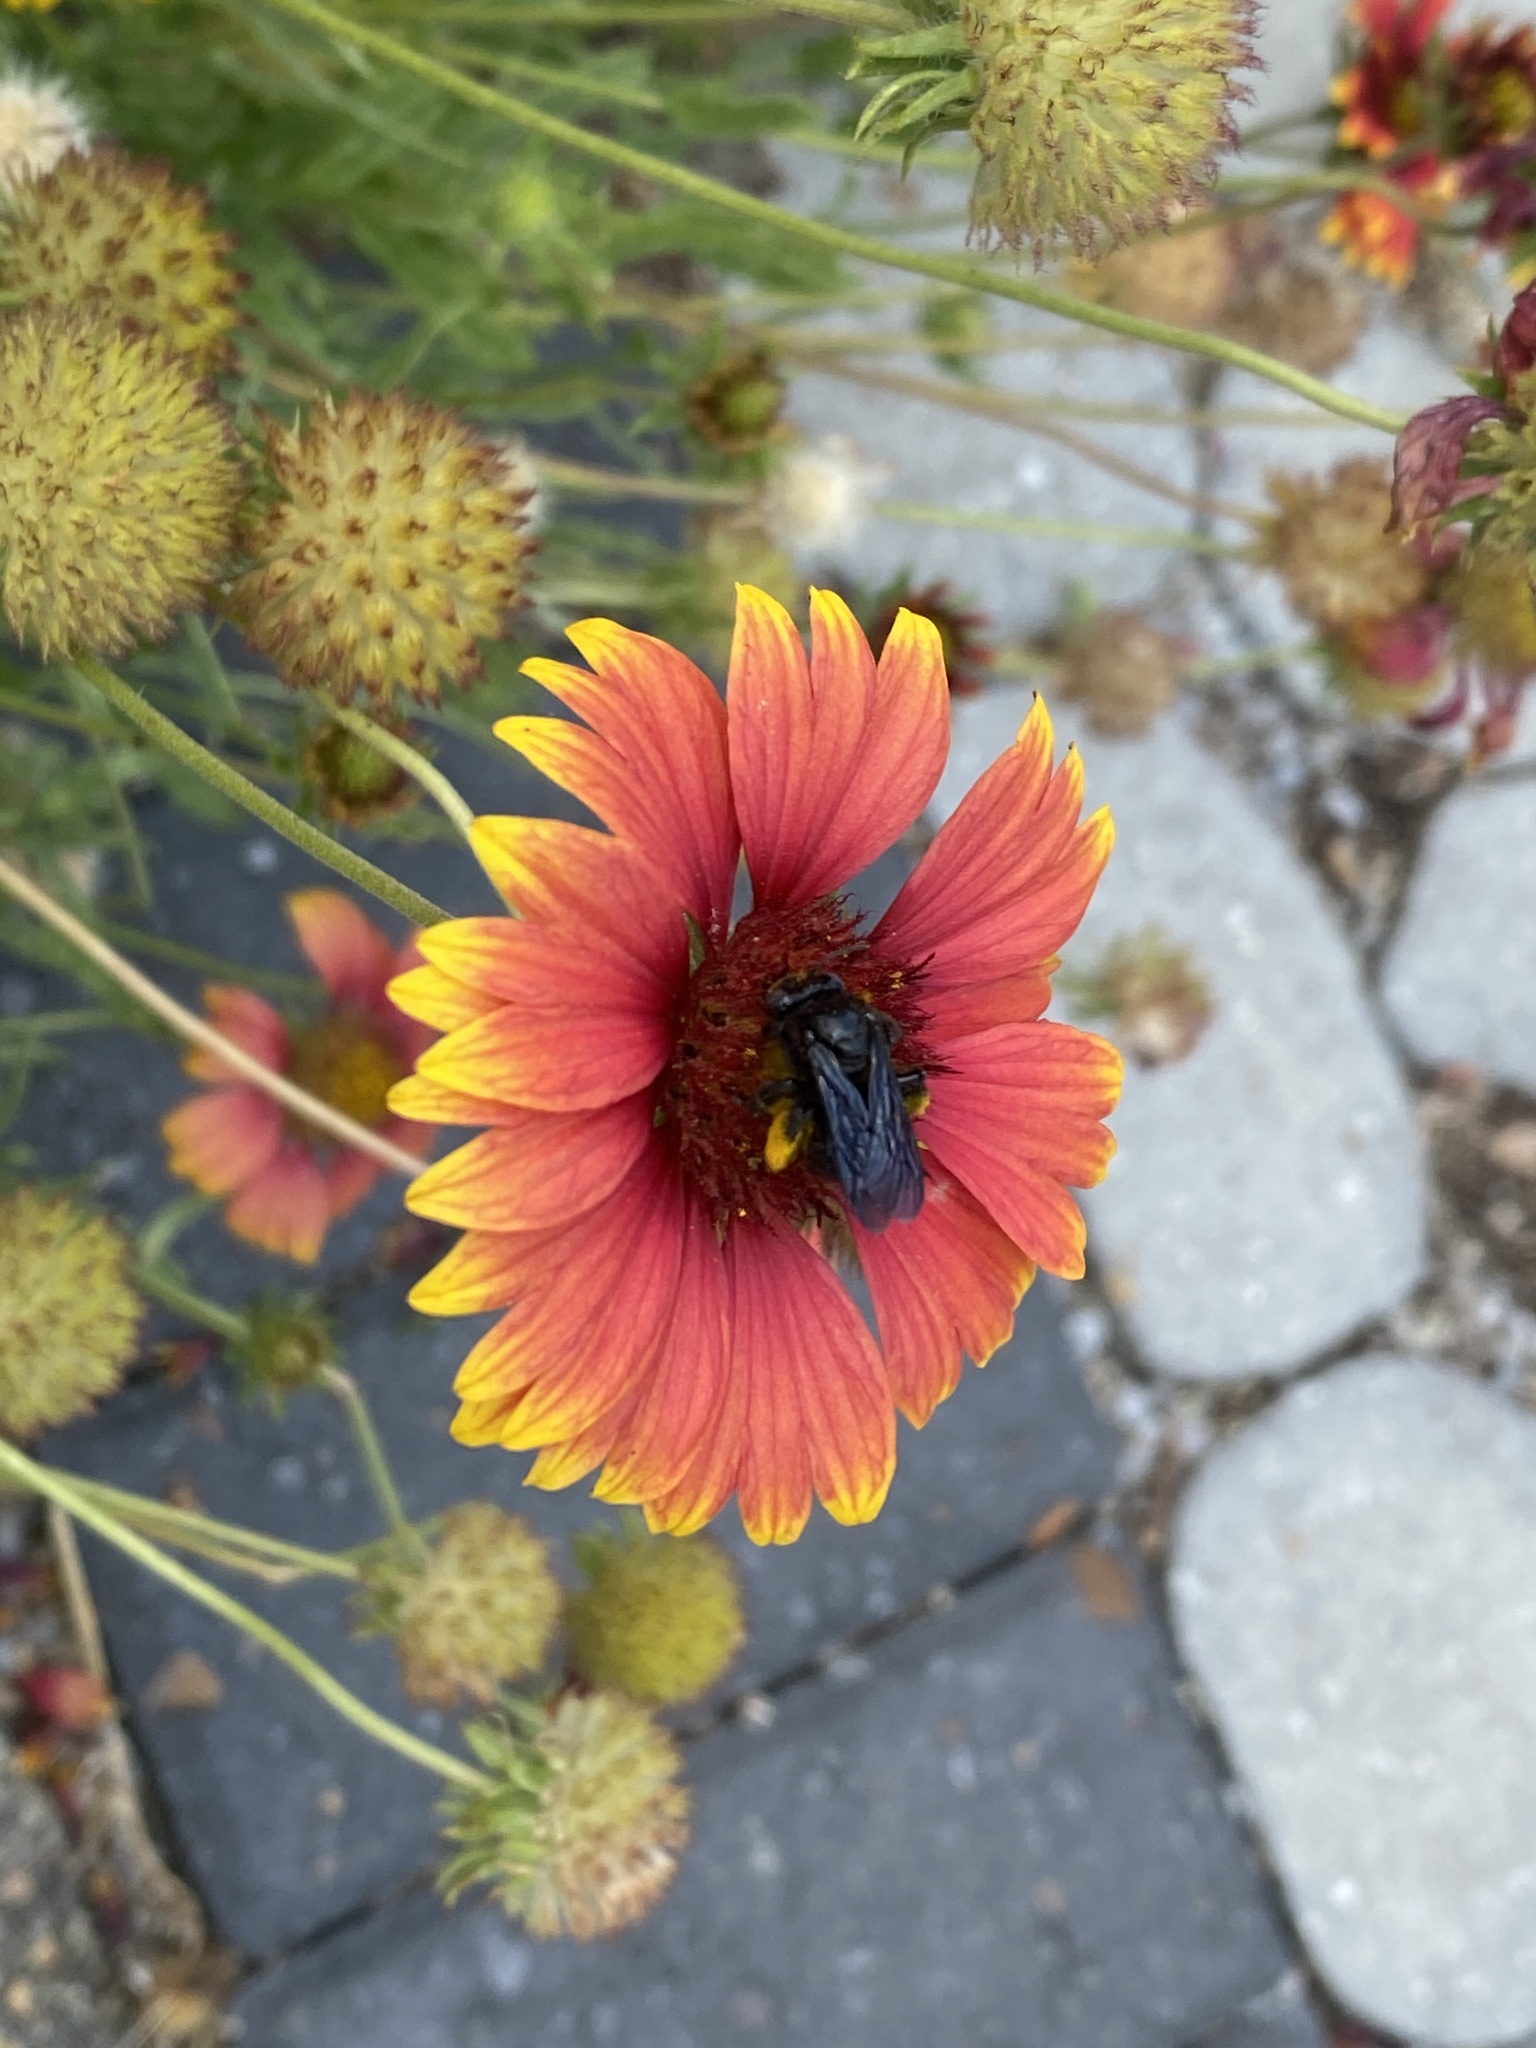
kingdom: Animalia
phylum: Arthropoda
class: Insecta
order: Hymenoptera
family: Apidae
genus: Melissodes
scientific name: Melissodes bimaculatus
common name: Two-spotted long-horned bee
